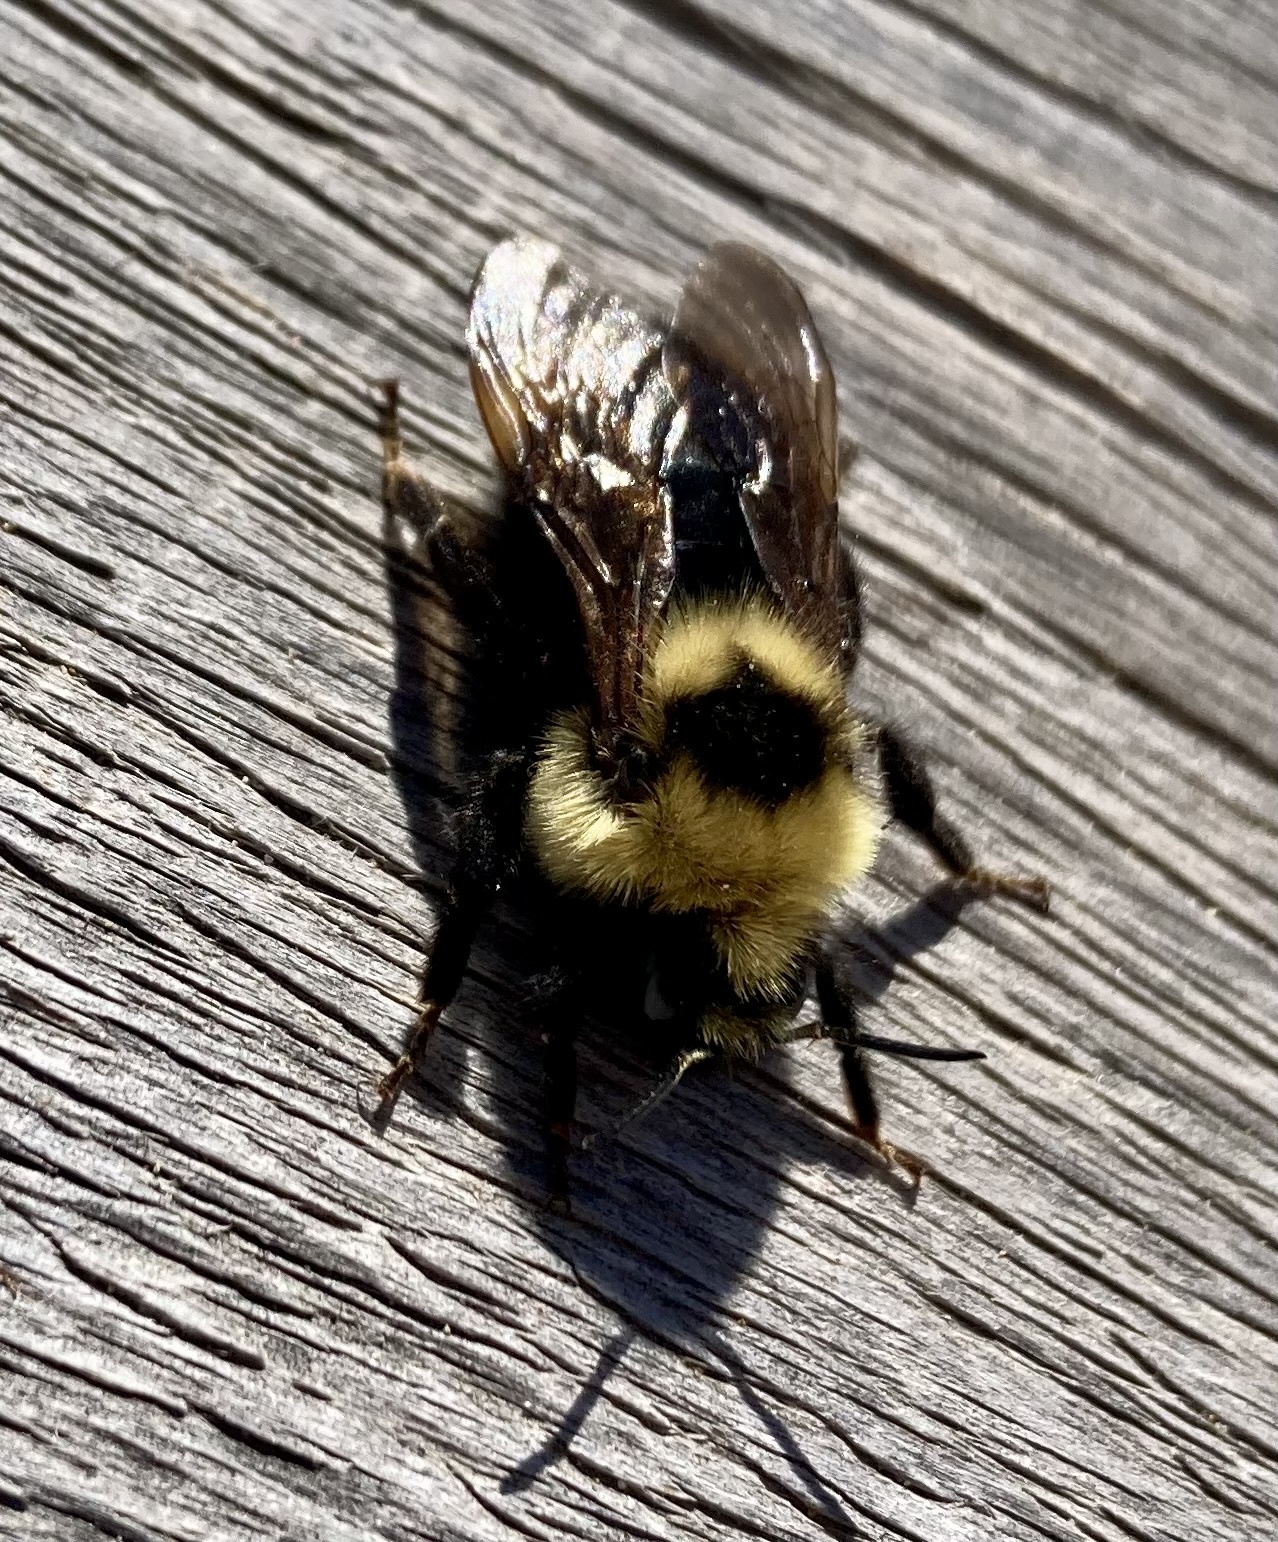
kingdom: Animalia
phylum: Arthropoda
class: Insecta
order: Hymenoptera
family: Apidae
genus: Bombus
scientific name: Bombus insularis
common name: Indiscriminate cuckoo bumble bee
